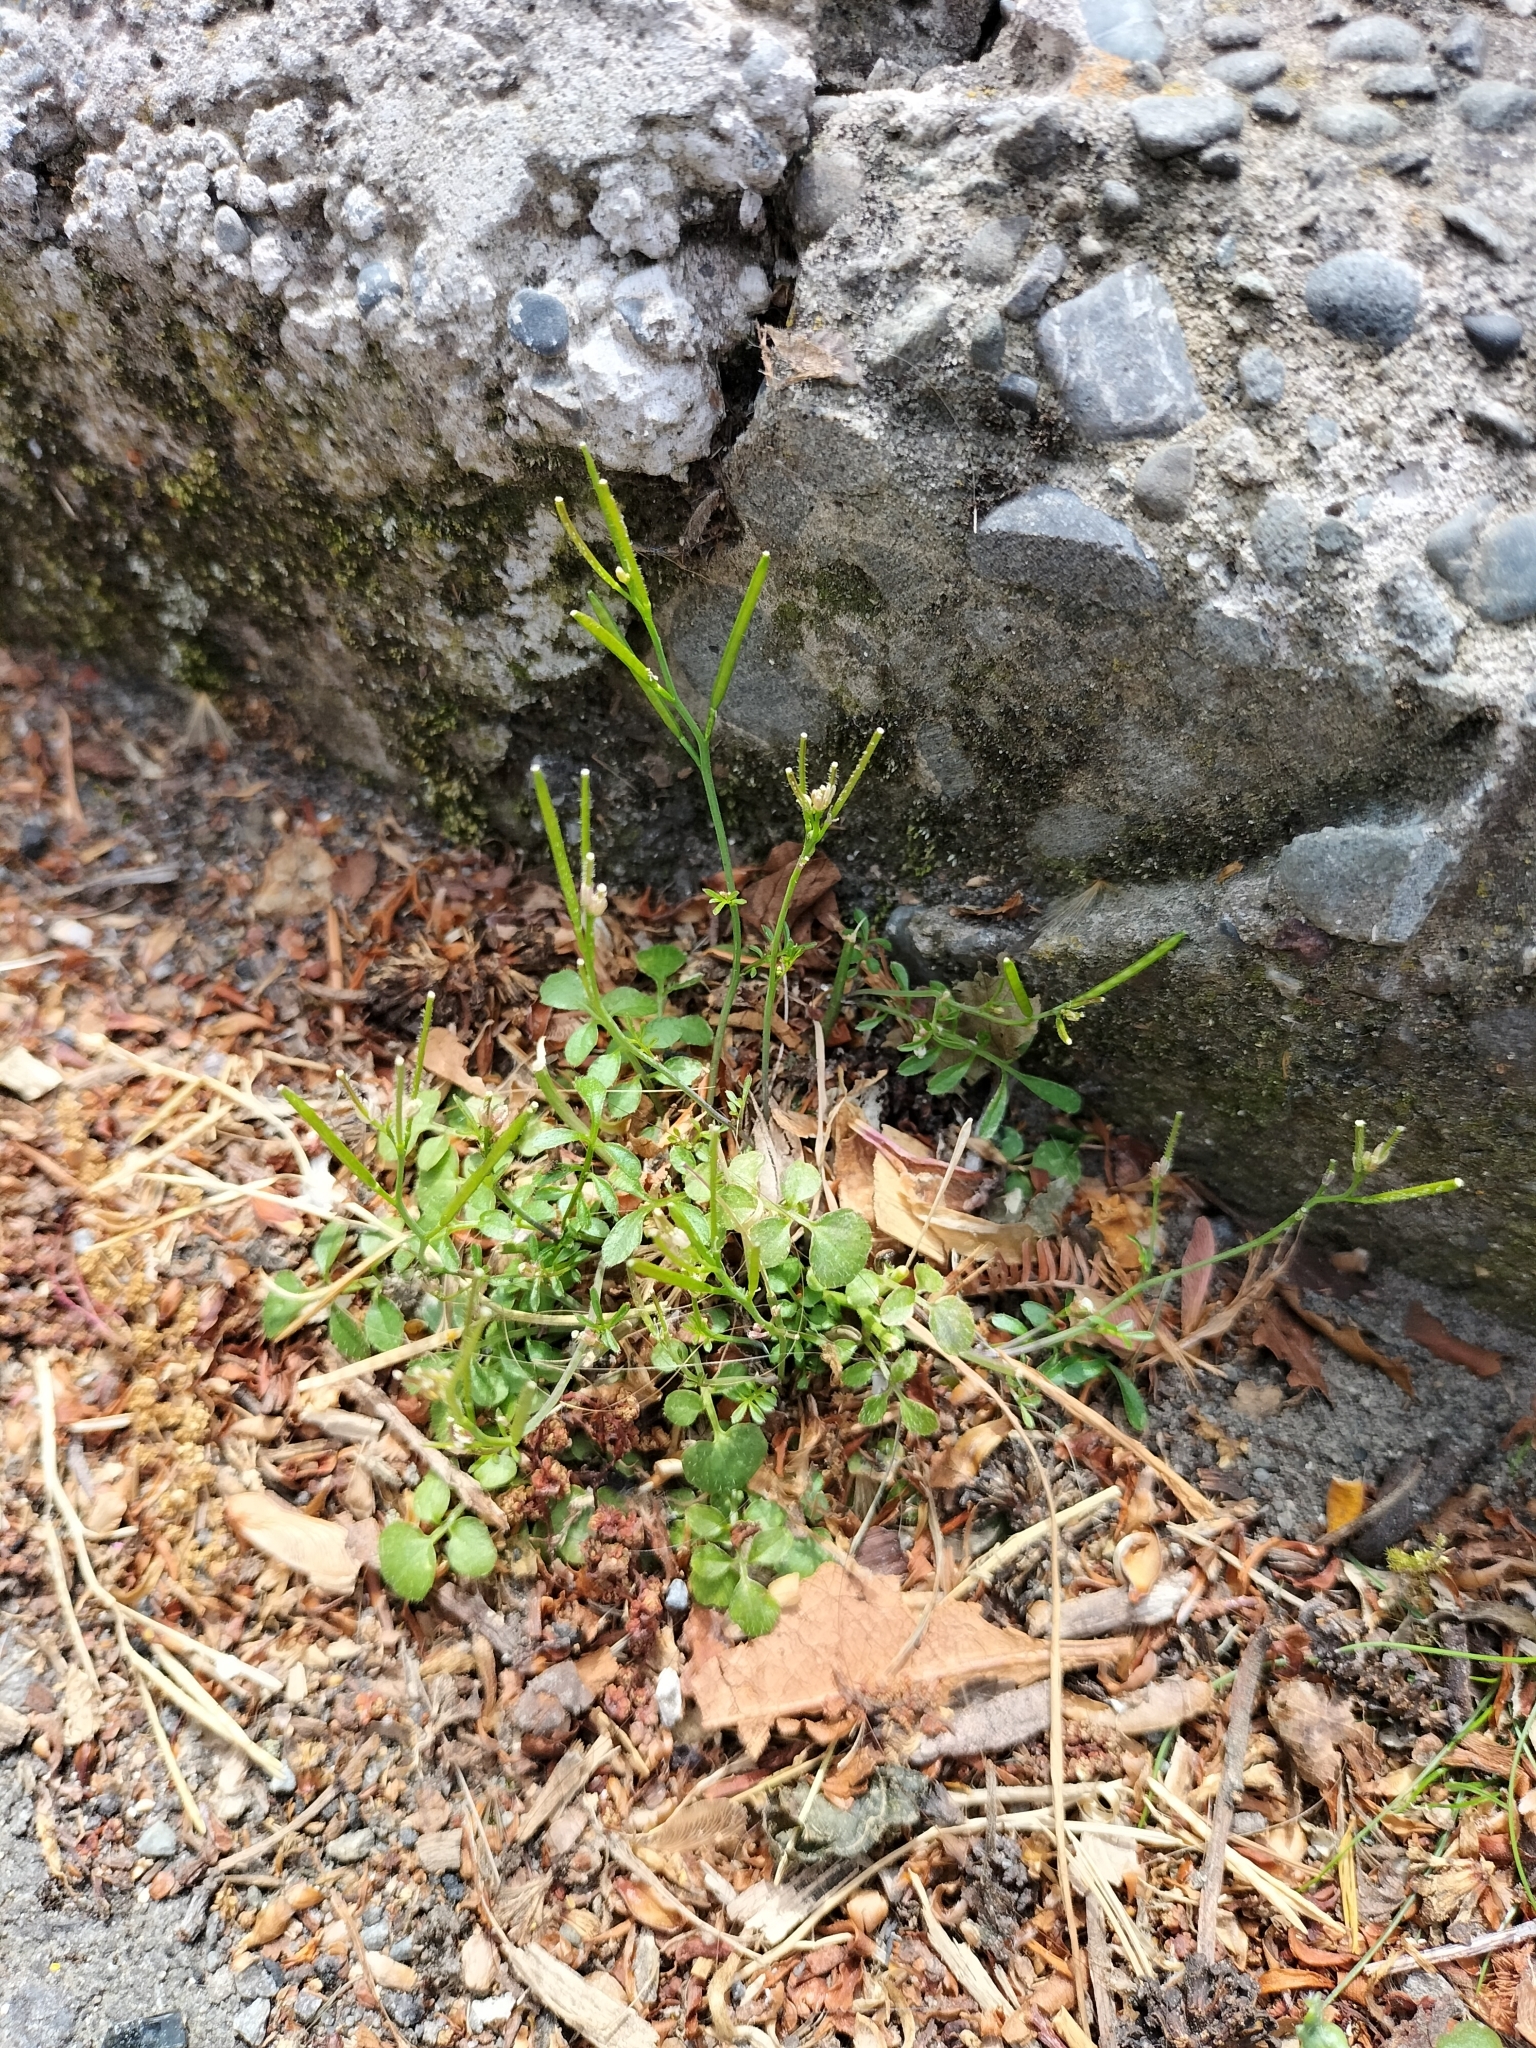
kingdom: Plantae
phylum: Tracheophyta
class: Magnoliopsida
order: Brassicales
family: Brassicaceae
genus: Cardamine
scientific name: Cardamine hirsuta
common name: Hairy bittercress
